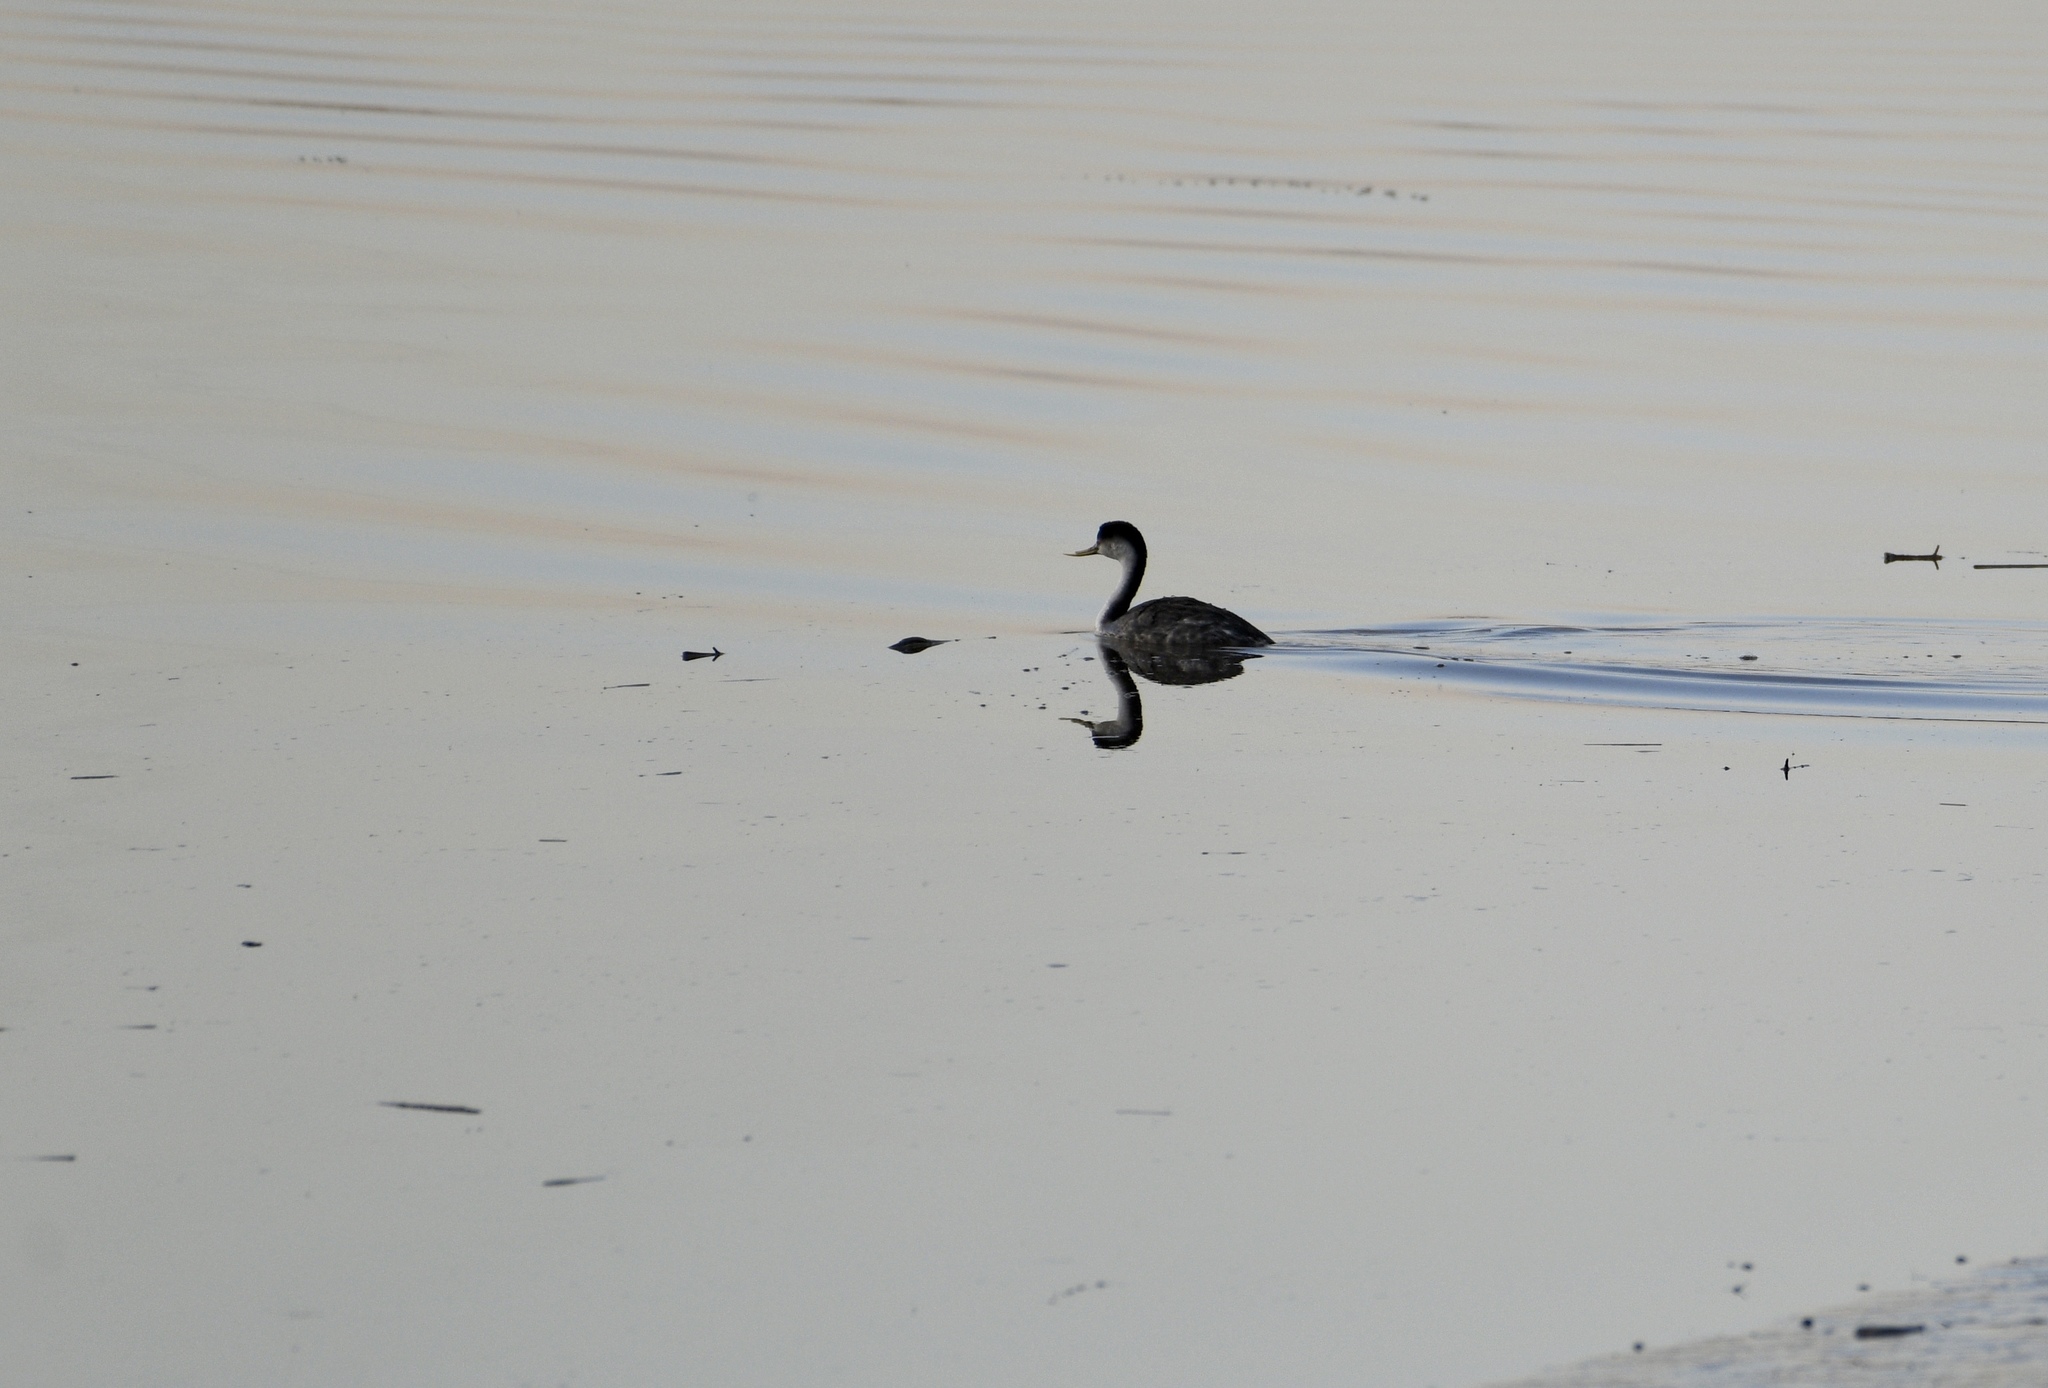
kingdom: Animalia
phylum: Chordata
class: Aves
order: Podicipediformes
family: Podicipedidae
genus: Aechmophorus
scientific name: Aechmophorus occidentalis
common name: Western grebe
